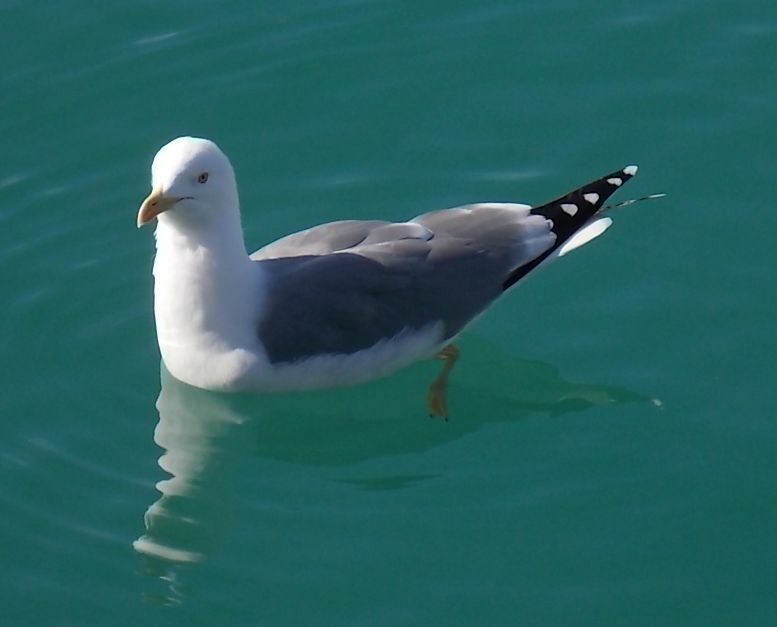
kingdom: Animalia
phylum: Chordata
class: Aves
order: Charadriiformes
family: Laridae
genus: Larus
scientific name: Larus michahellis
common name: Yellow-legged gull
